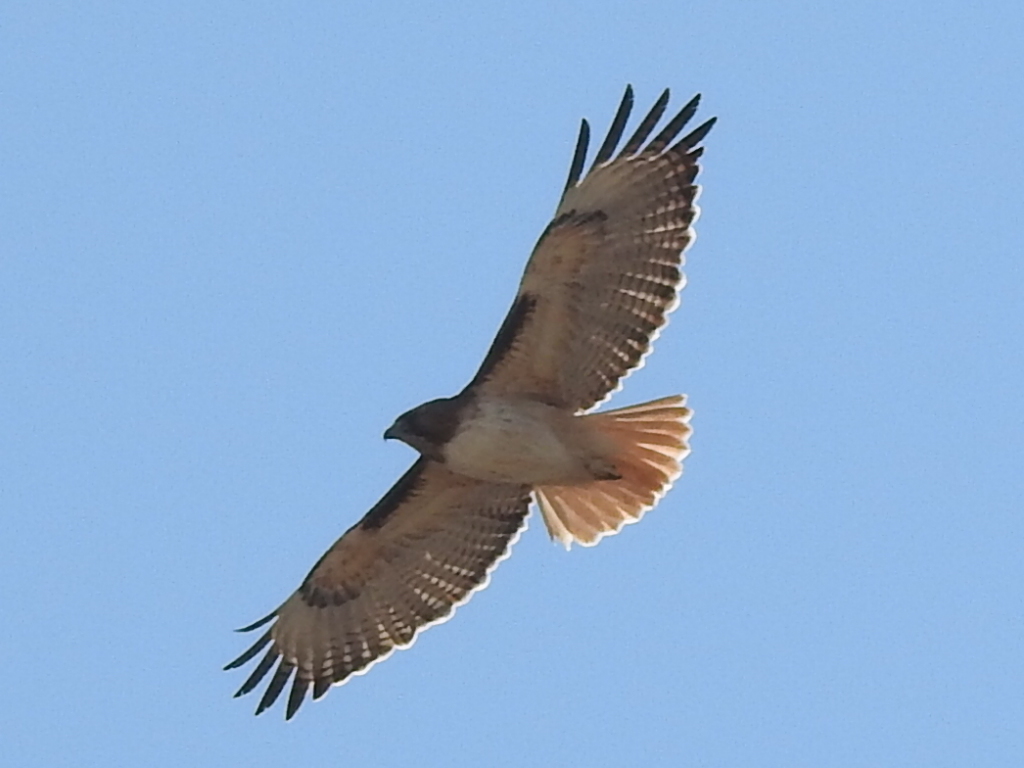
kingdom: Animalia
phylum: Chordata
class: Aves
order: Accipitriformes
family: Accipitridae
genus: Buteo
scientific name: Buteo jamaicensis
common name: Red-tailed hawk
